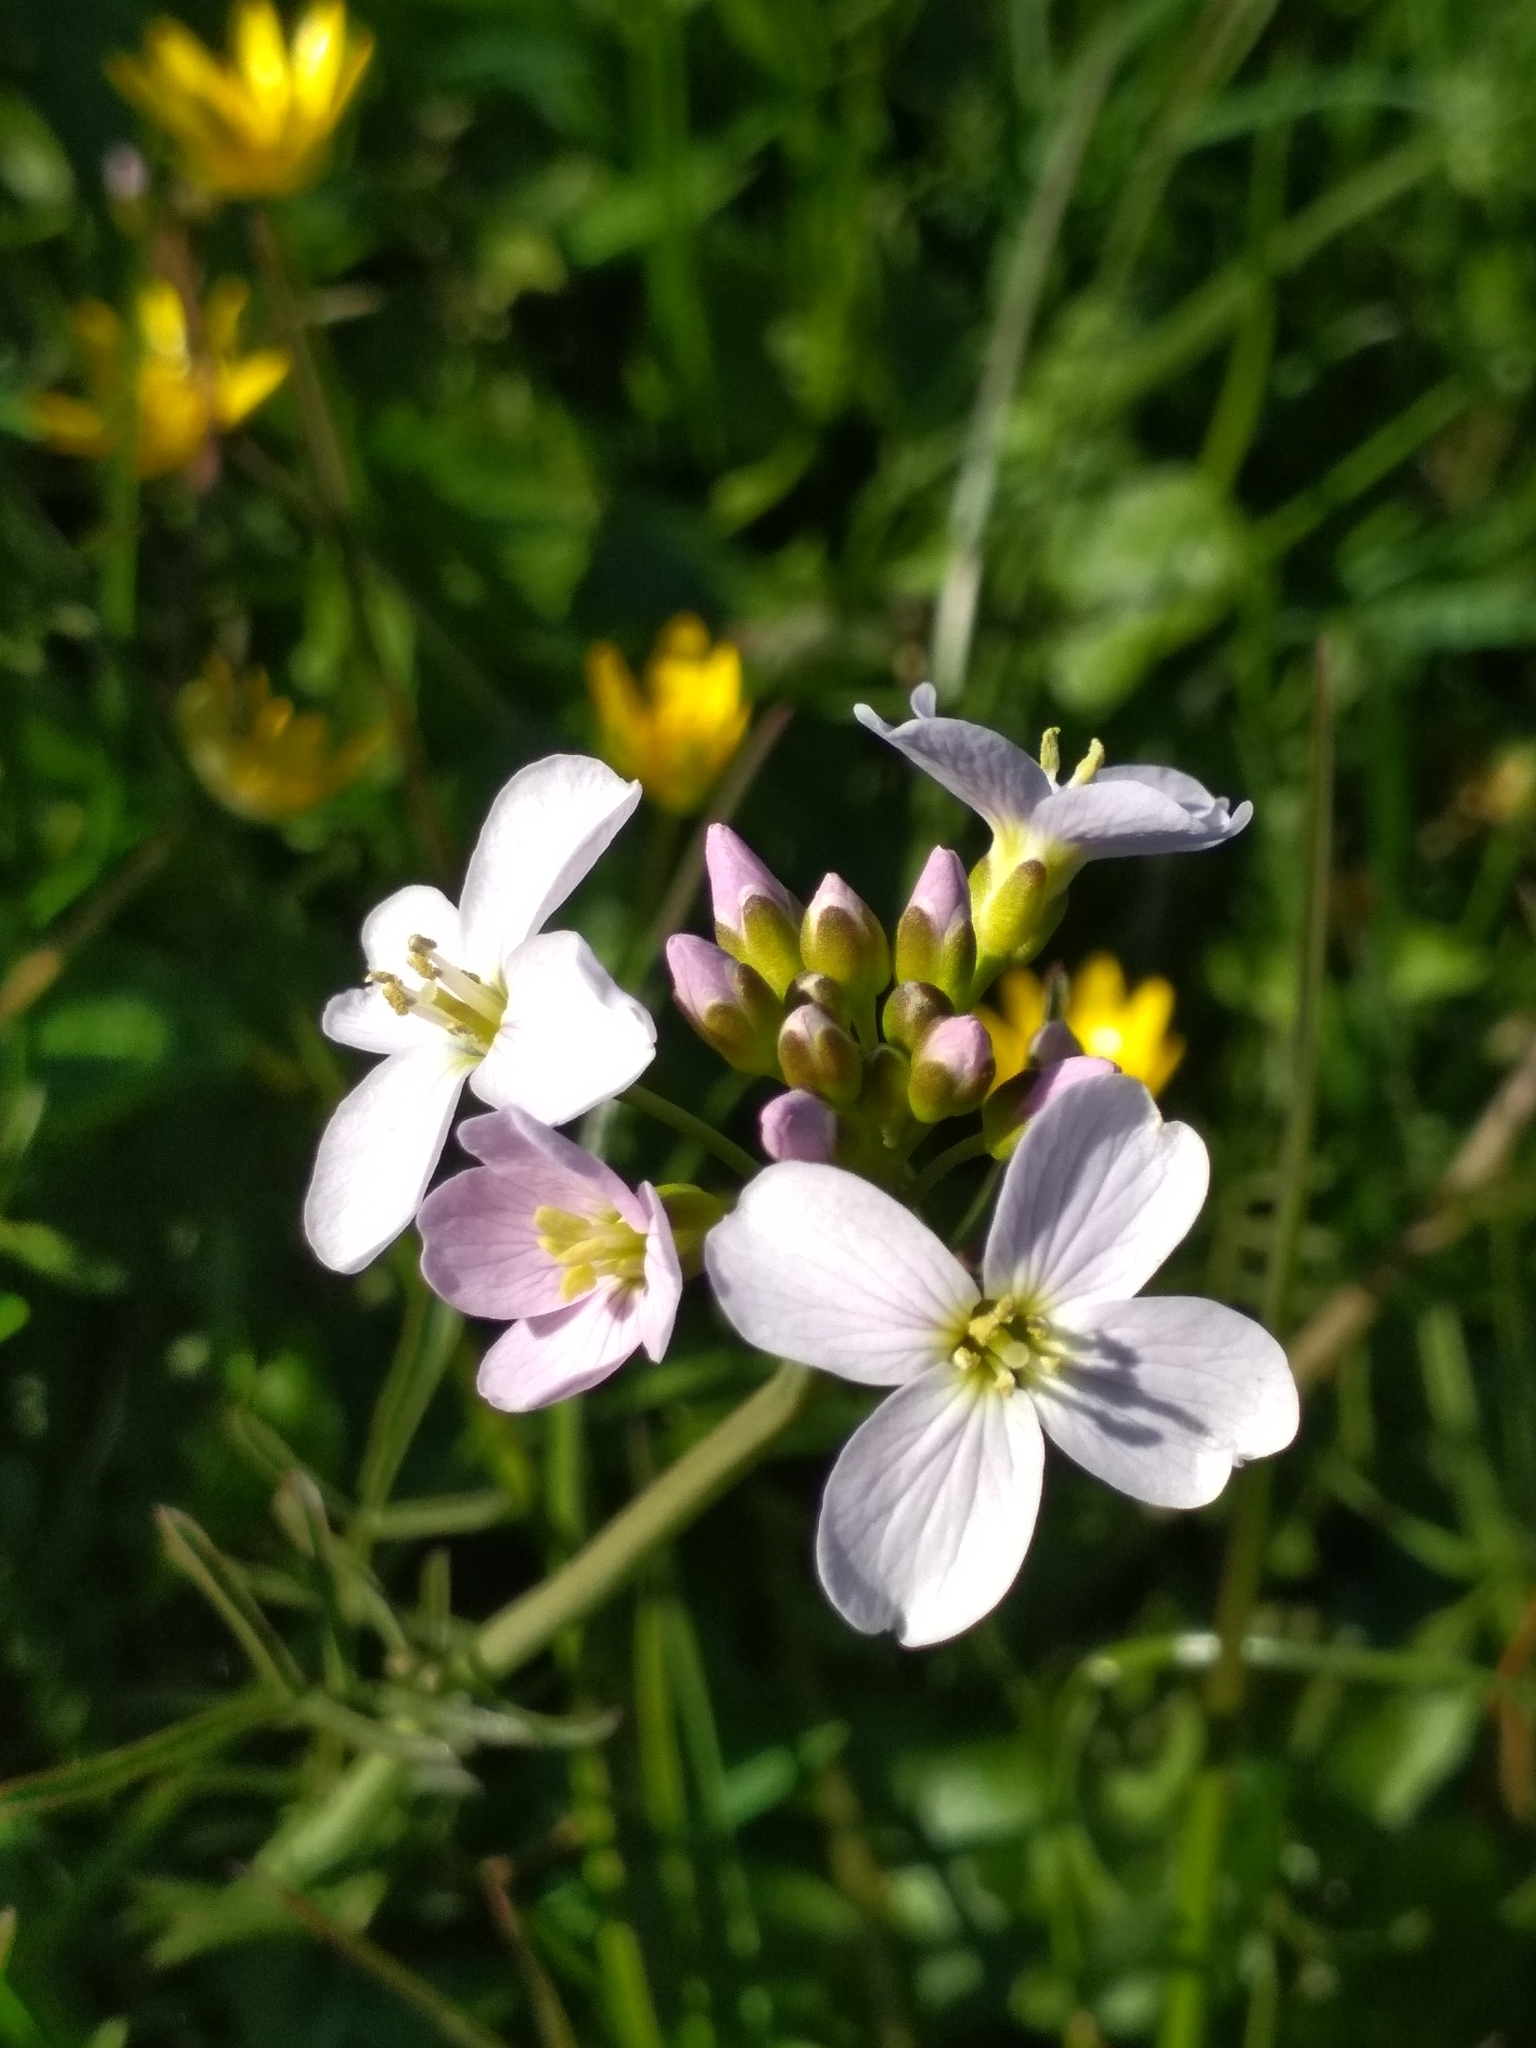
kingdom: Plantae
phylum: Tracheophyta
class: Magnoliopsida
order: Brassicales
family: Brassicaceae
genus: Cardamine
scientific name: Cardamine pratensis
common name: Cuckoo flower
